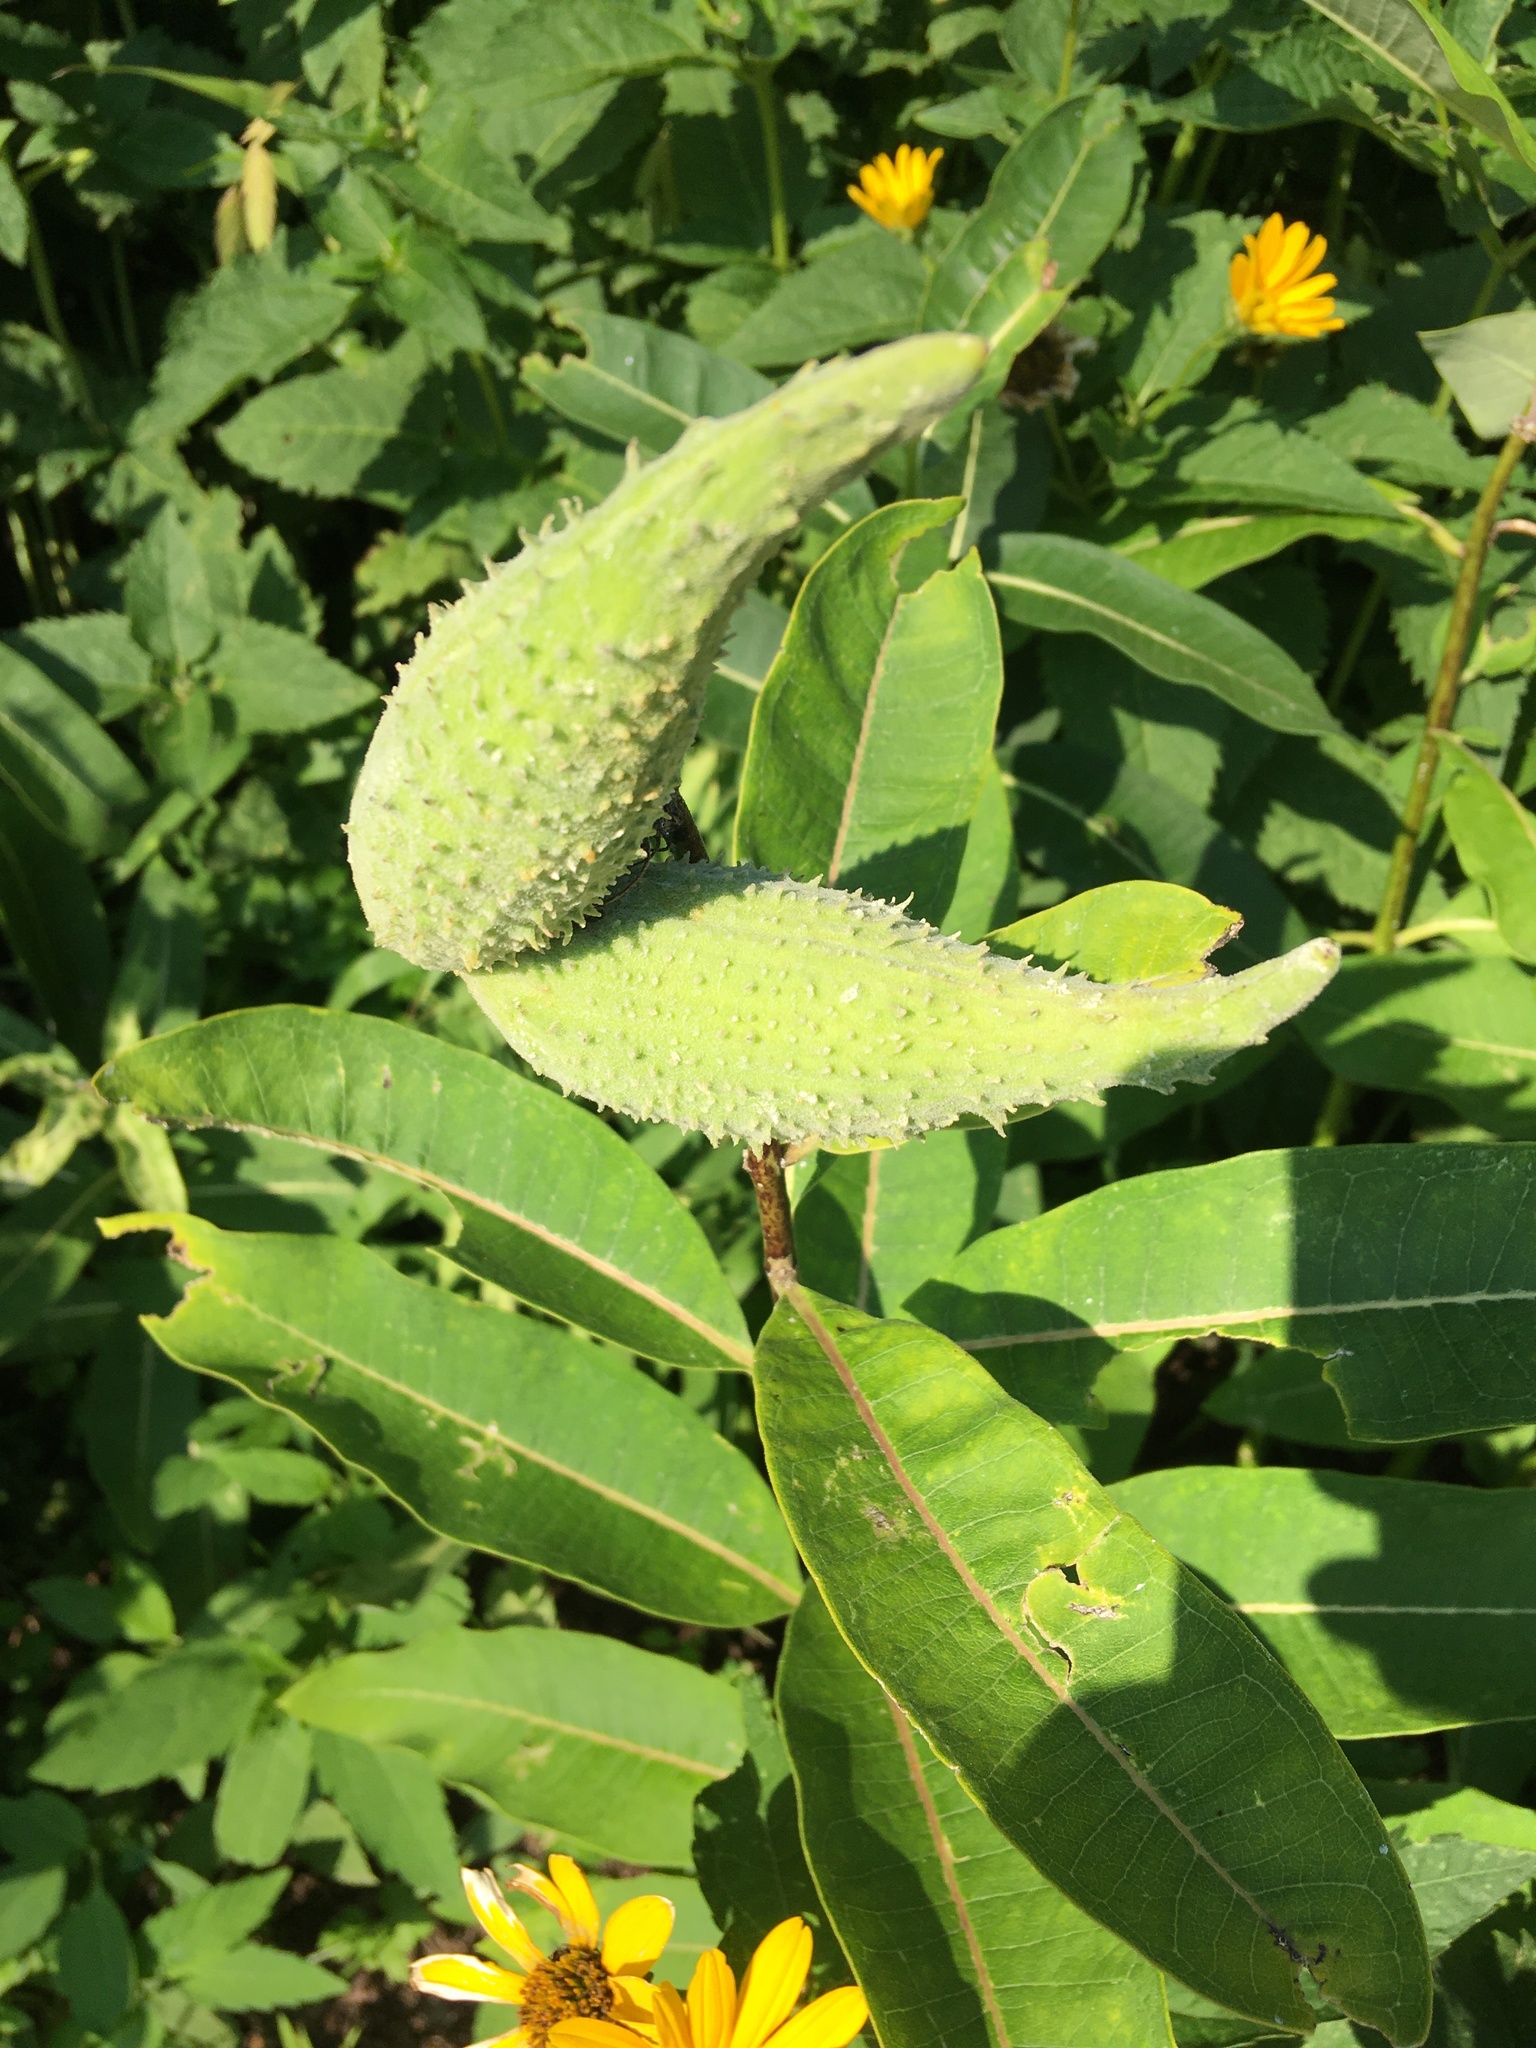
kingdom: Plantae
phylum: Tracheophyta
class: Magnoliopsida
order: Gentianales
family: Apocynaceae
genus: Asclepias
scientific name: Asclepias syriaca
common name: Common milkweed
